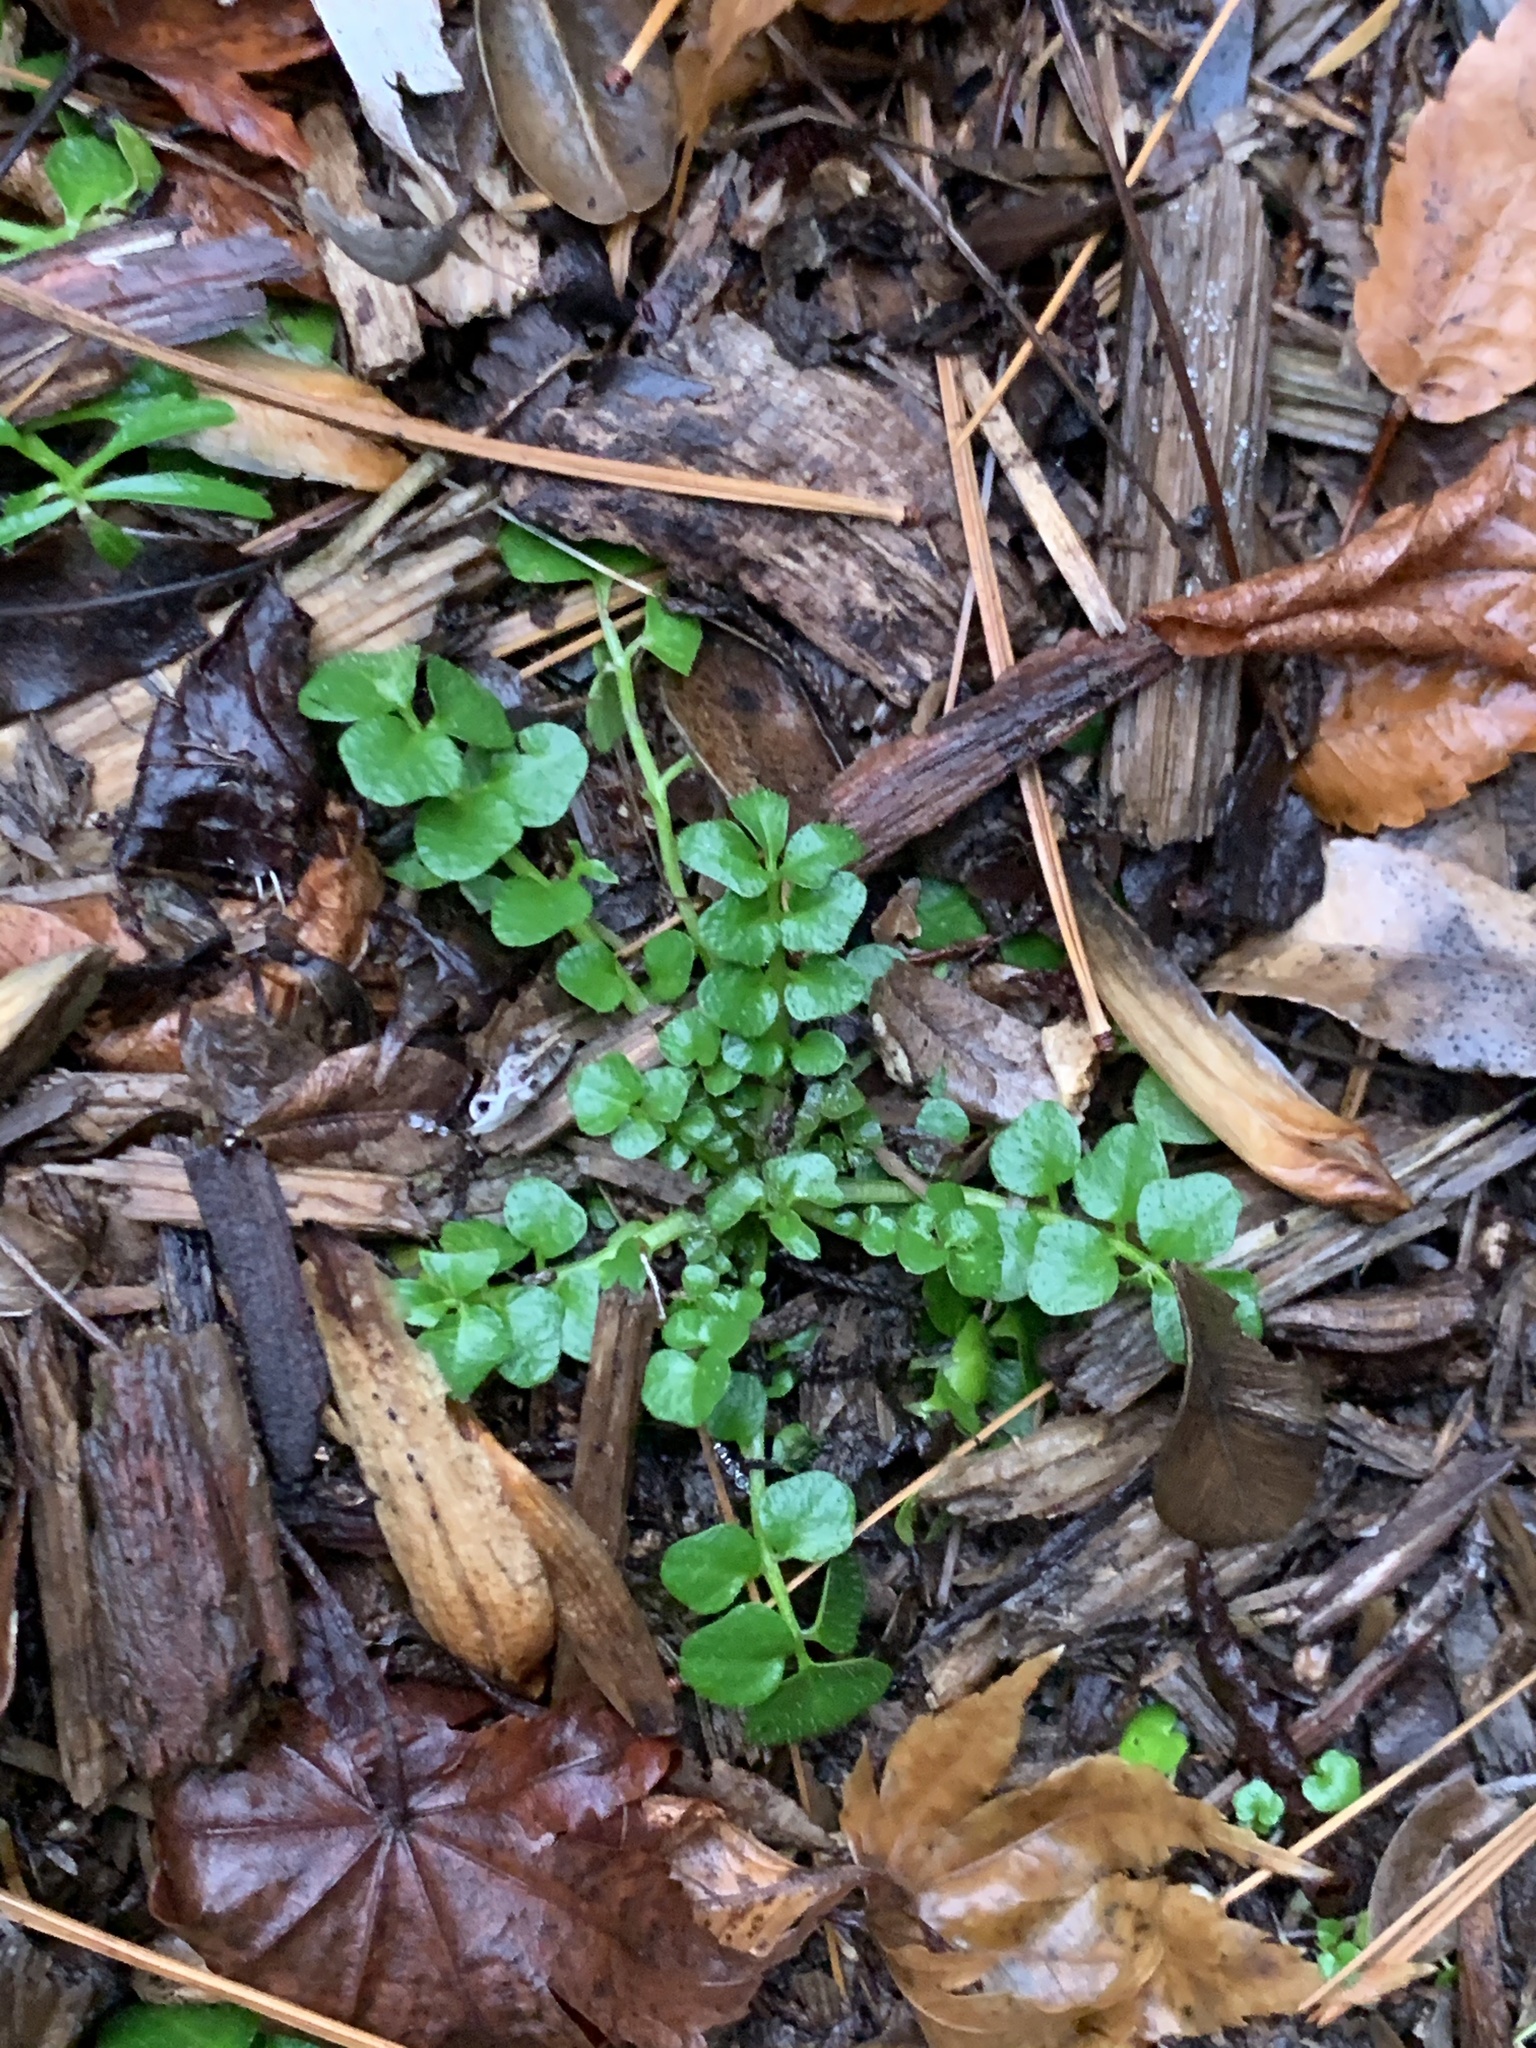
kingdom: Plantae
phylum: Tracheophyta
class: Magnoliopsida
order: Brassicales
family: Brassicaceae
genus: Cardamine
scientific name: Cardamine hirsuta
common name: Hairy bittercress
